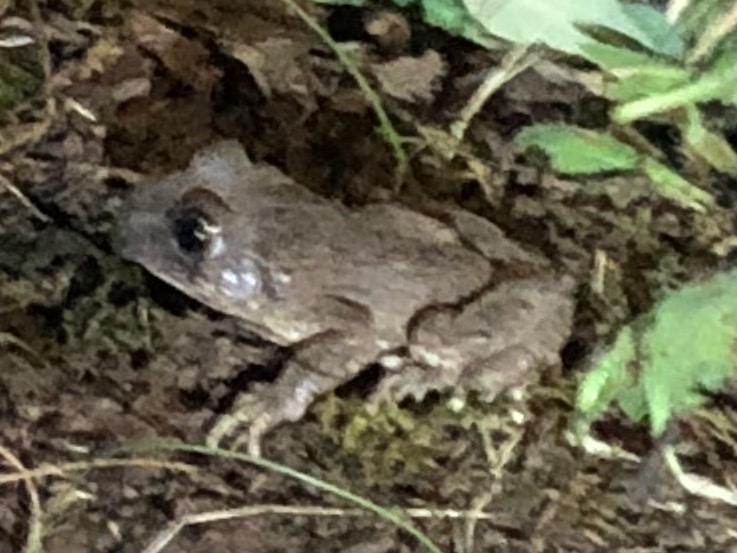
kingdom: Animalia
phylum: Chordata
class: Amphibia
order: Anura
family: Alytidae
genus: Alytes
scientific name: Alytes obstetricans
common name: Midwife toad
